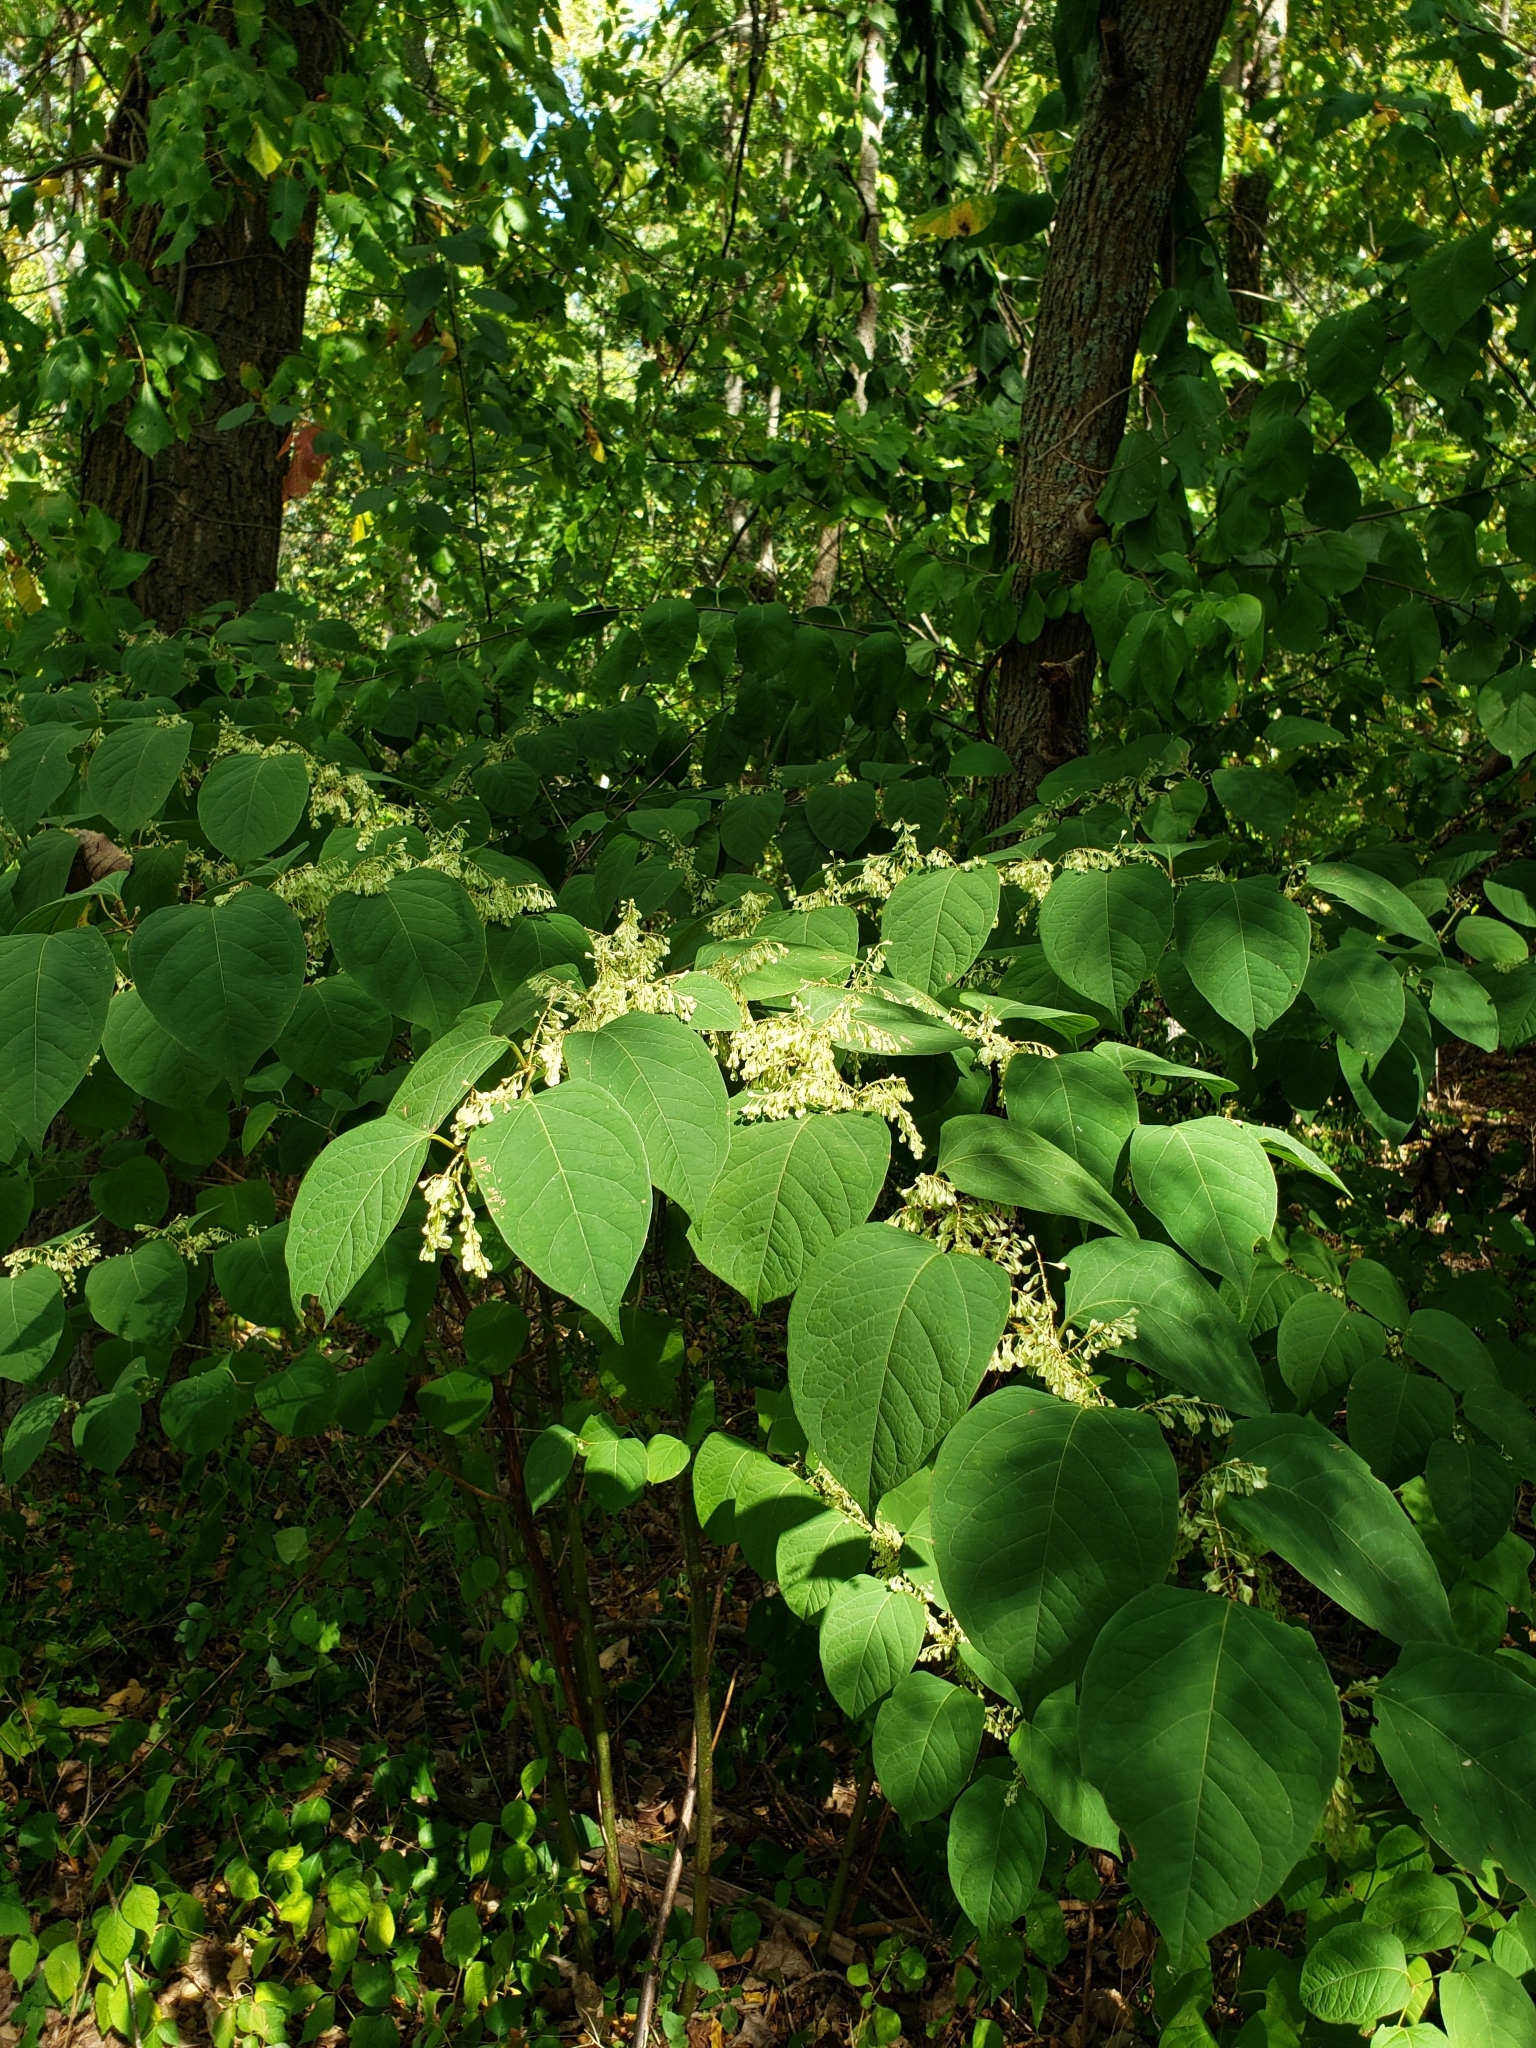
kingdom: Plantae
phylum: Tracheophyta
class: Magnoliopsida
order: Caryophyllales
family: Polygonaceae
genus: Reynoutria
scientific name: Reynoutria japonica
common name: Japanese knotweed
